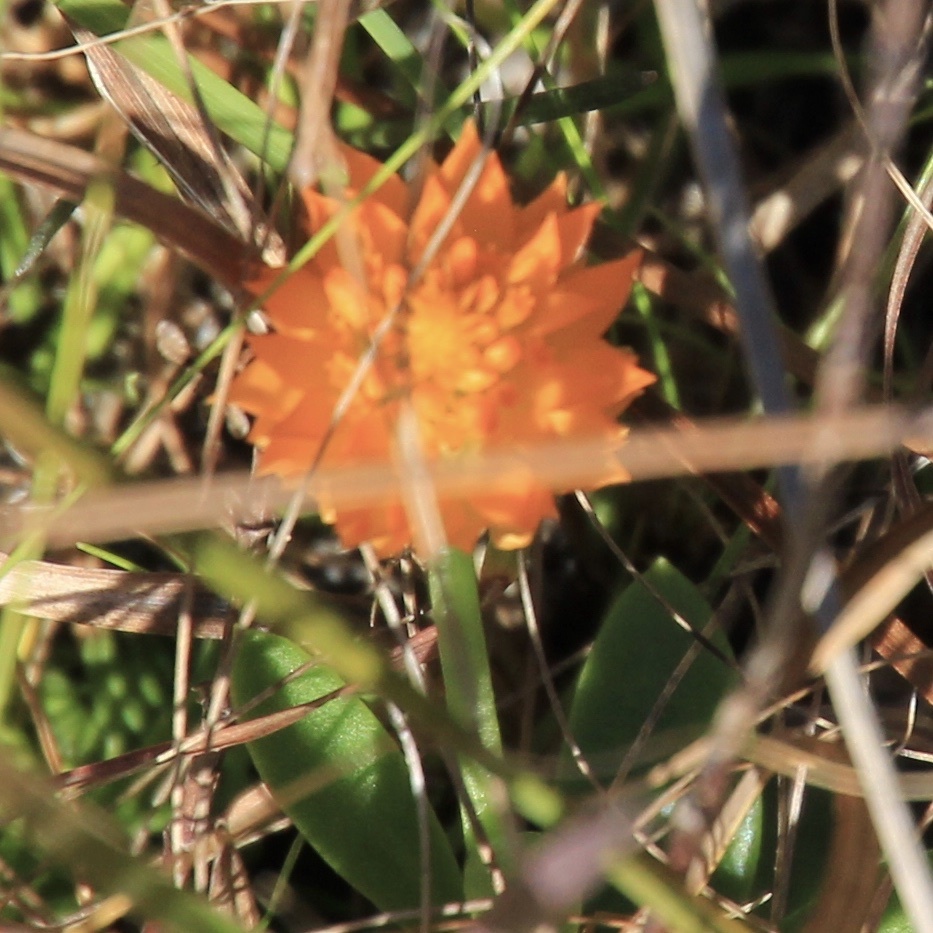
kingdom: Plantae
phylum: Tracheophyta
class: Magnoliopsida
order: Fabales
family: Polygalaceae
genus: Polygala
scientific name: Polygala lutea
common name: Orange milkwort
